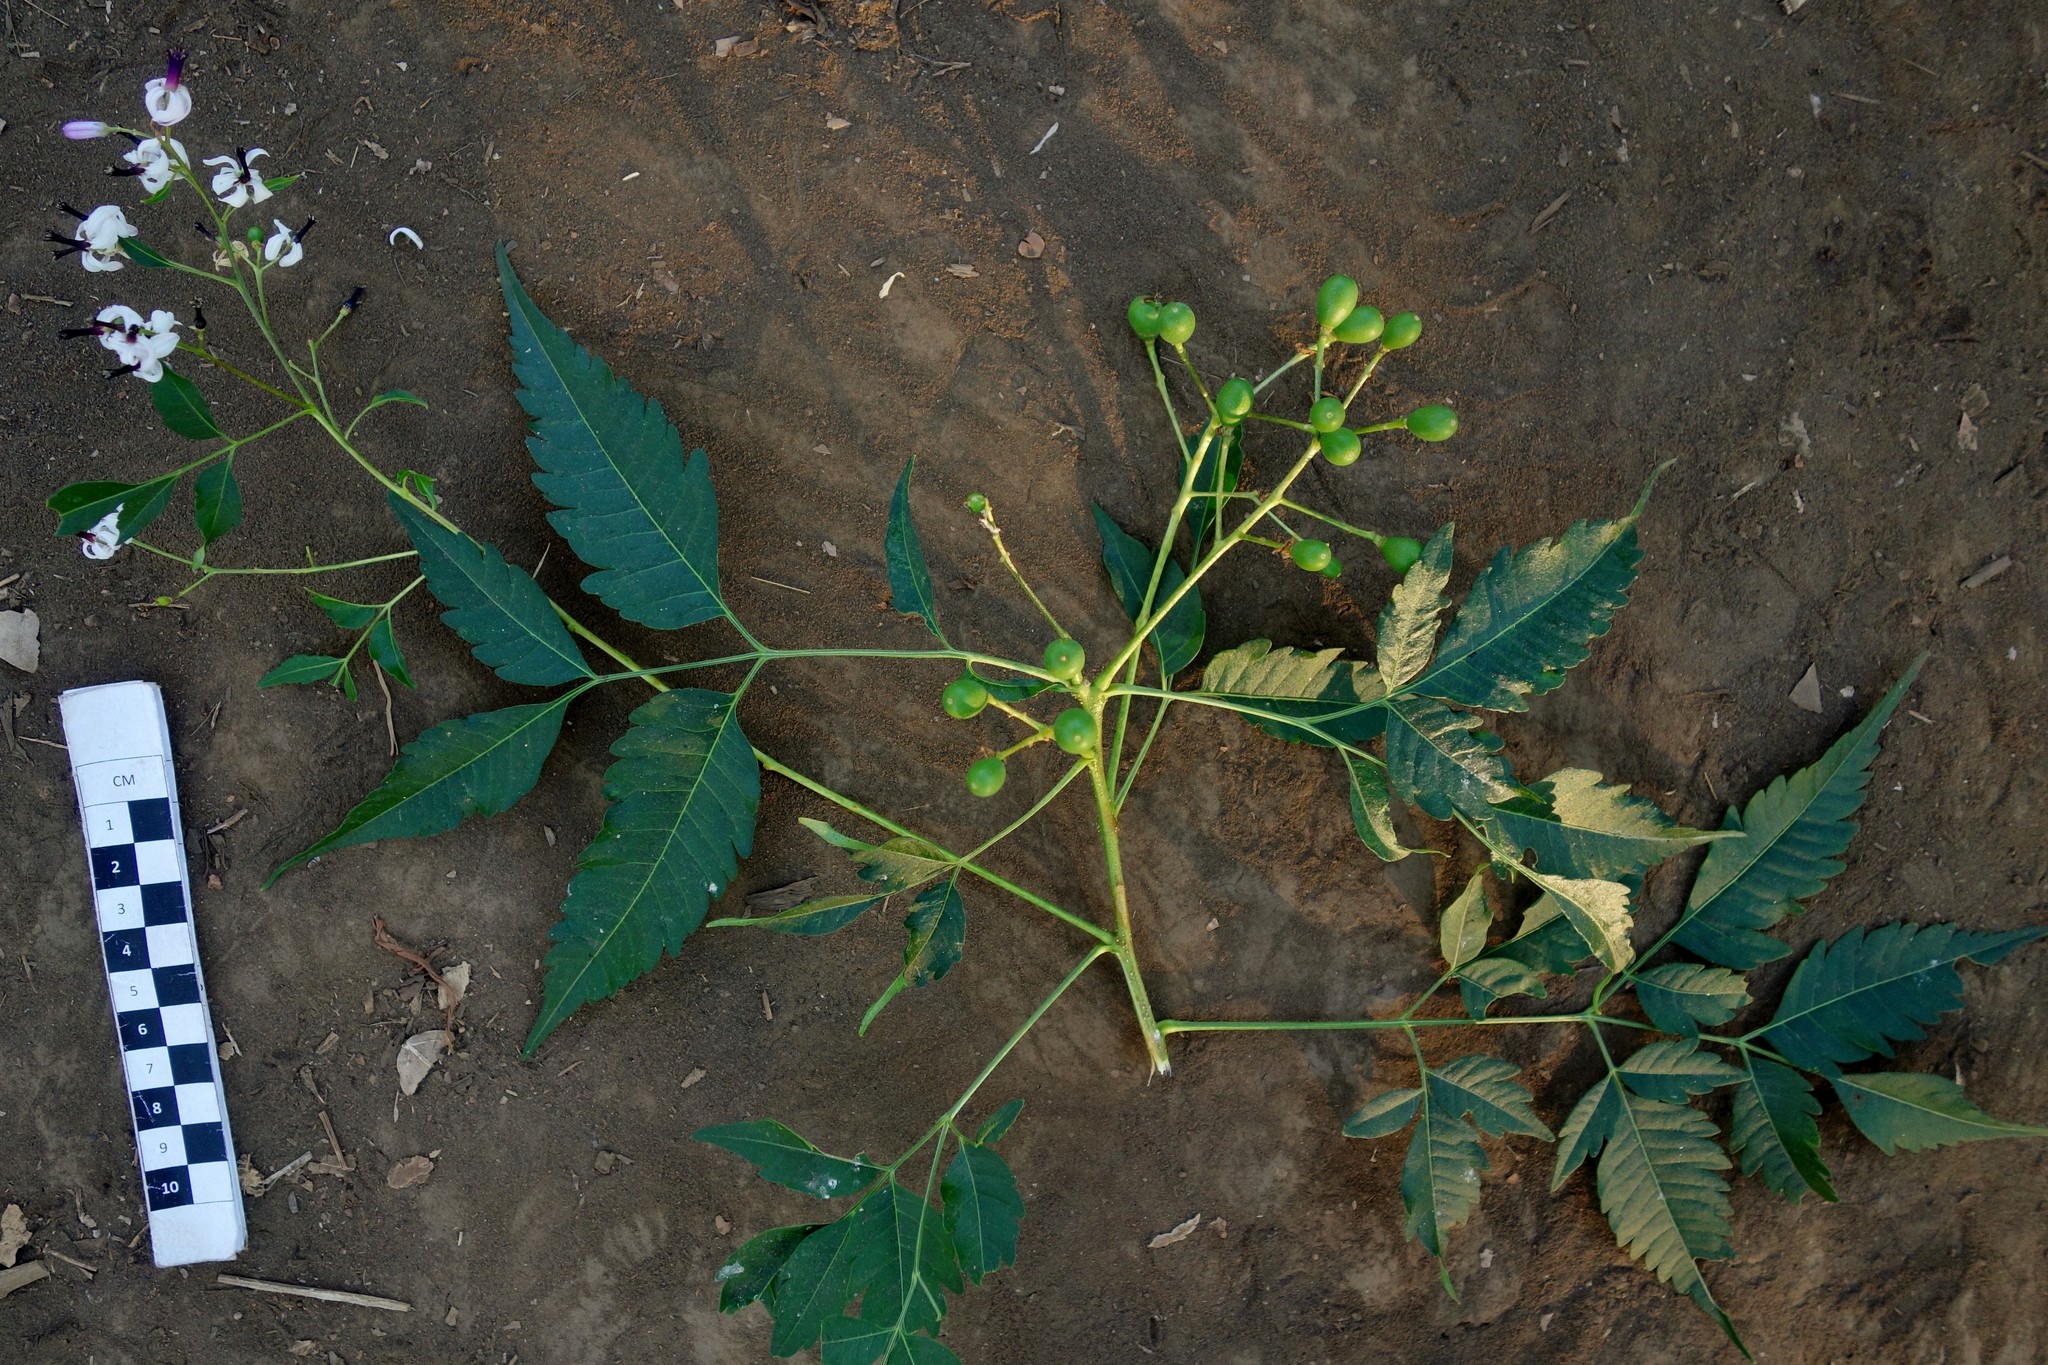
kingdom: Plantae
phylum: Tracheophyta
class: Magnoliopsida
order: Sapindales
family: Meliaceae
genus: Melia
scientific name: Melia azedarach
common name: Chinaberrytree
